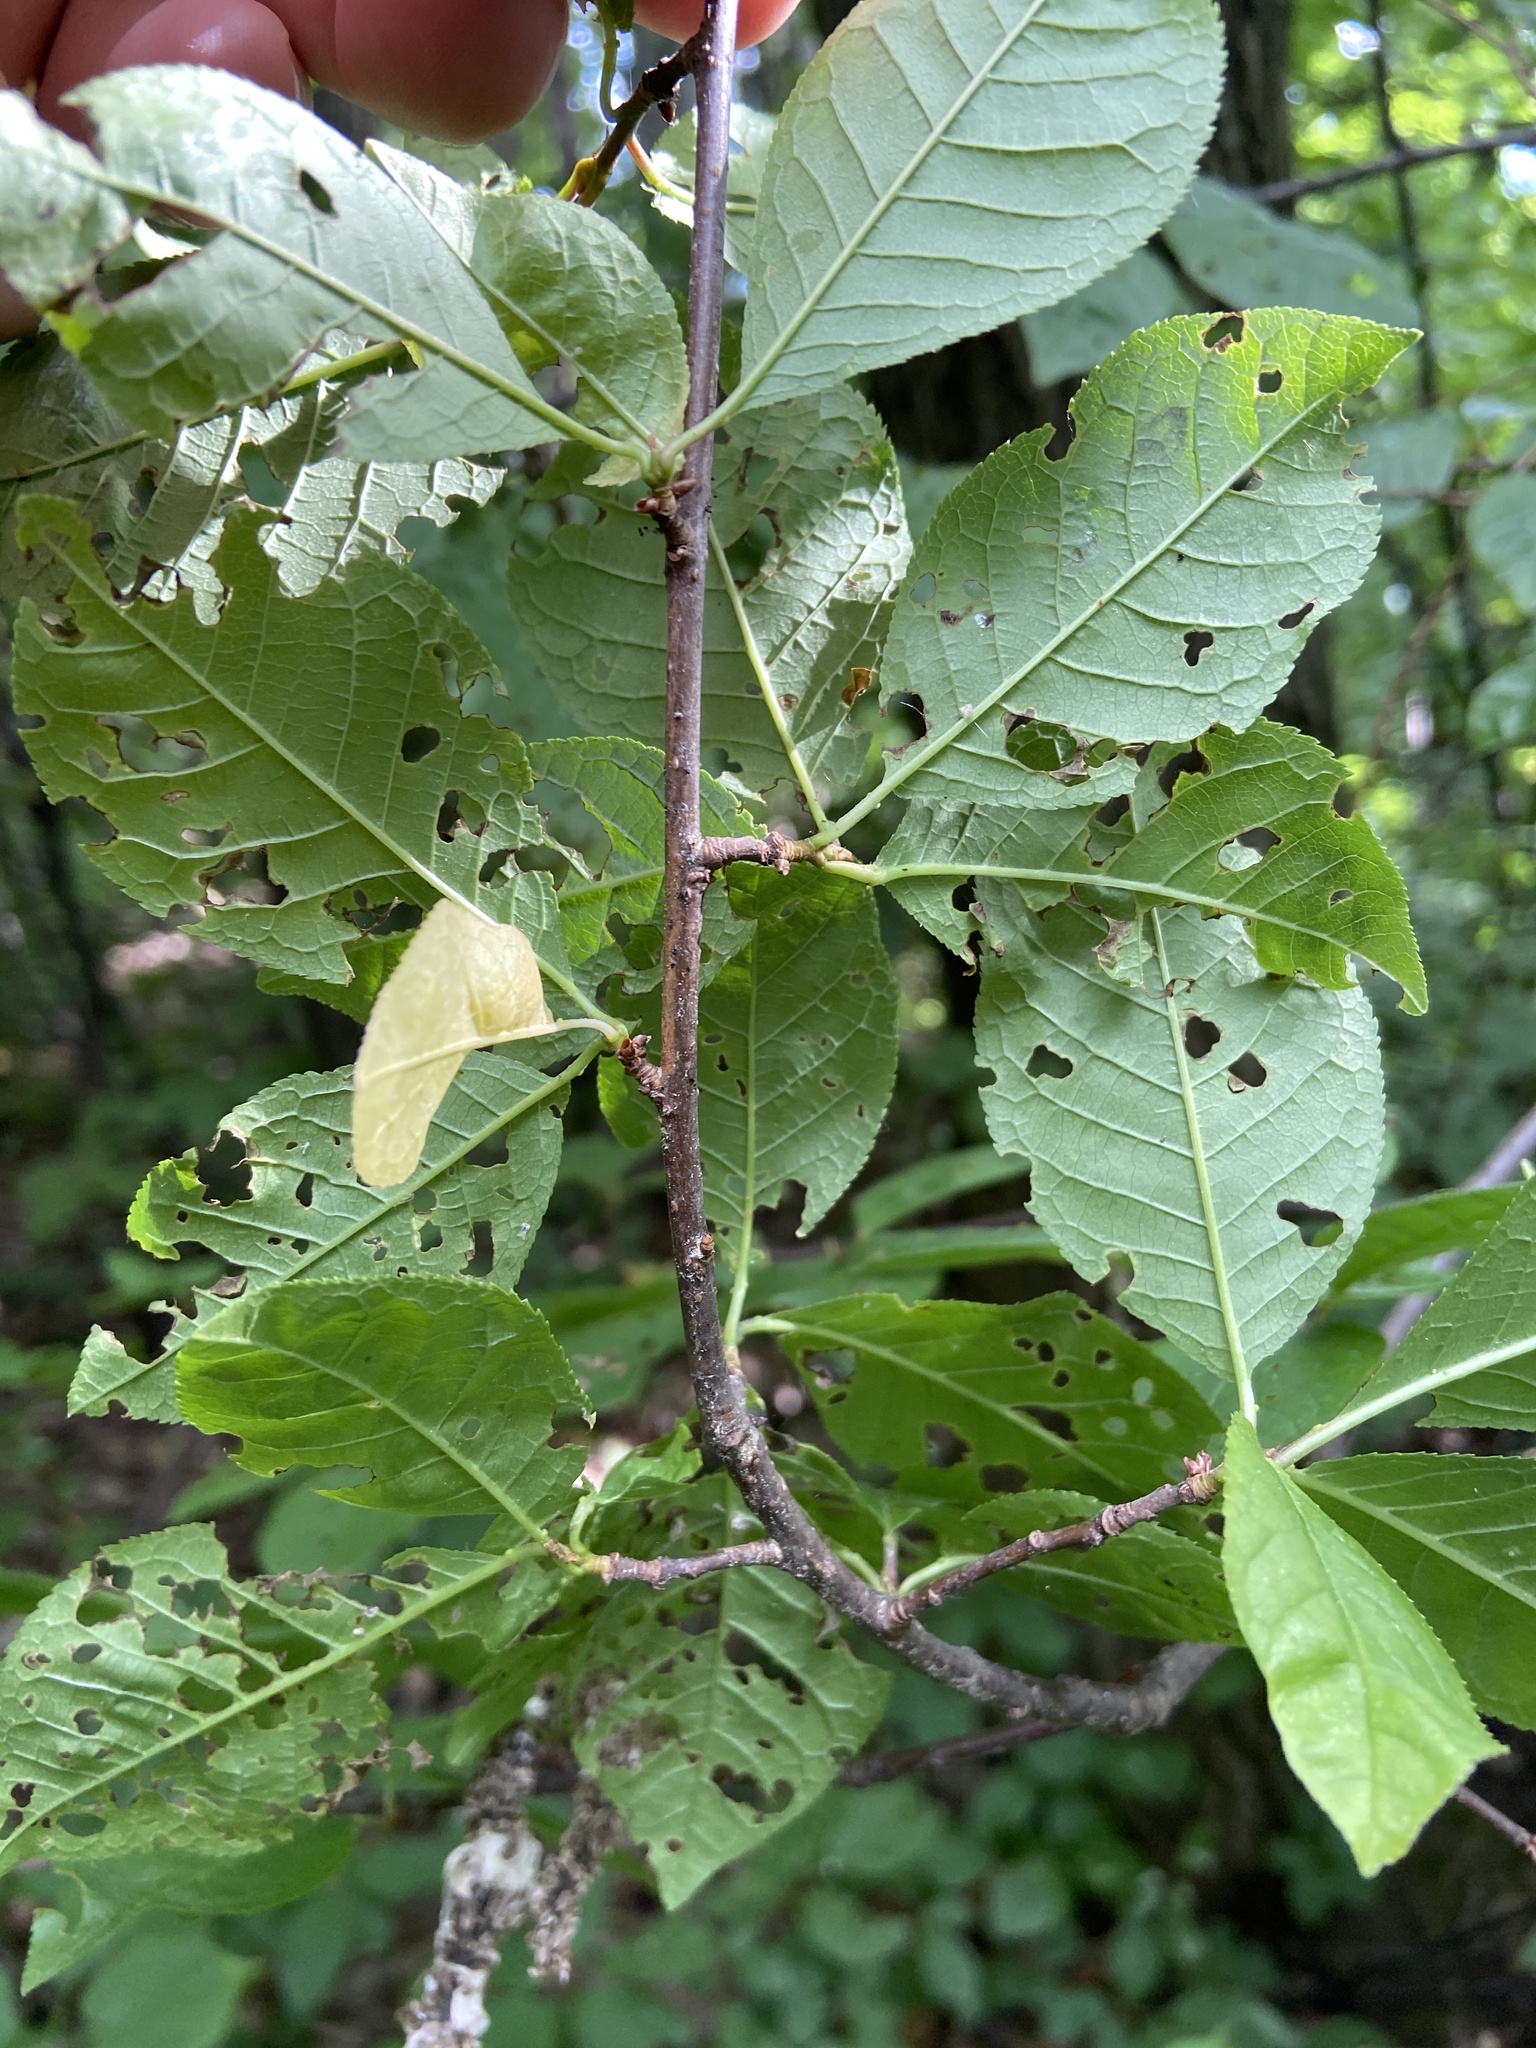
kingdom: Plantae
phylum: Tracheophyta
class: Magnoliopsida
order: Rosales
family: Rosaceae
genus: Prunus
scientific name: Prunus padus
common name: Bird cherry
